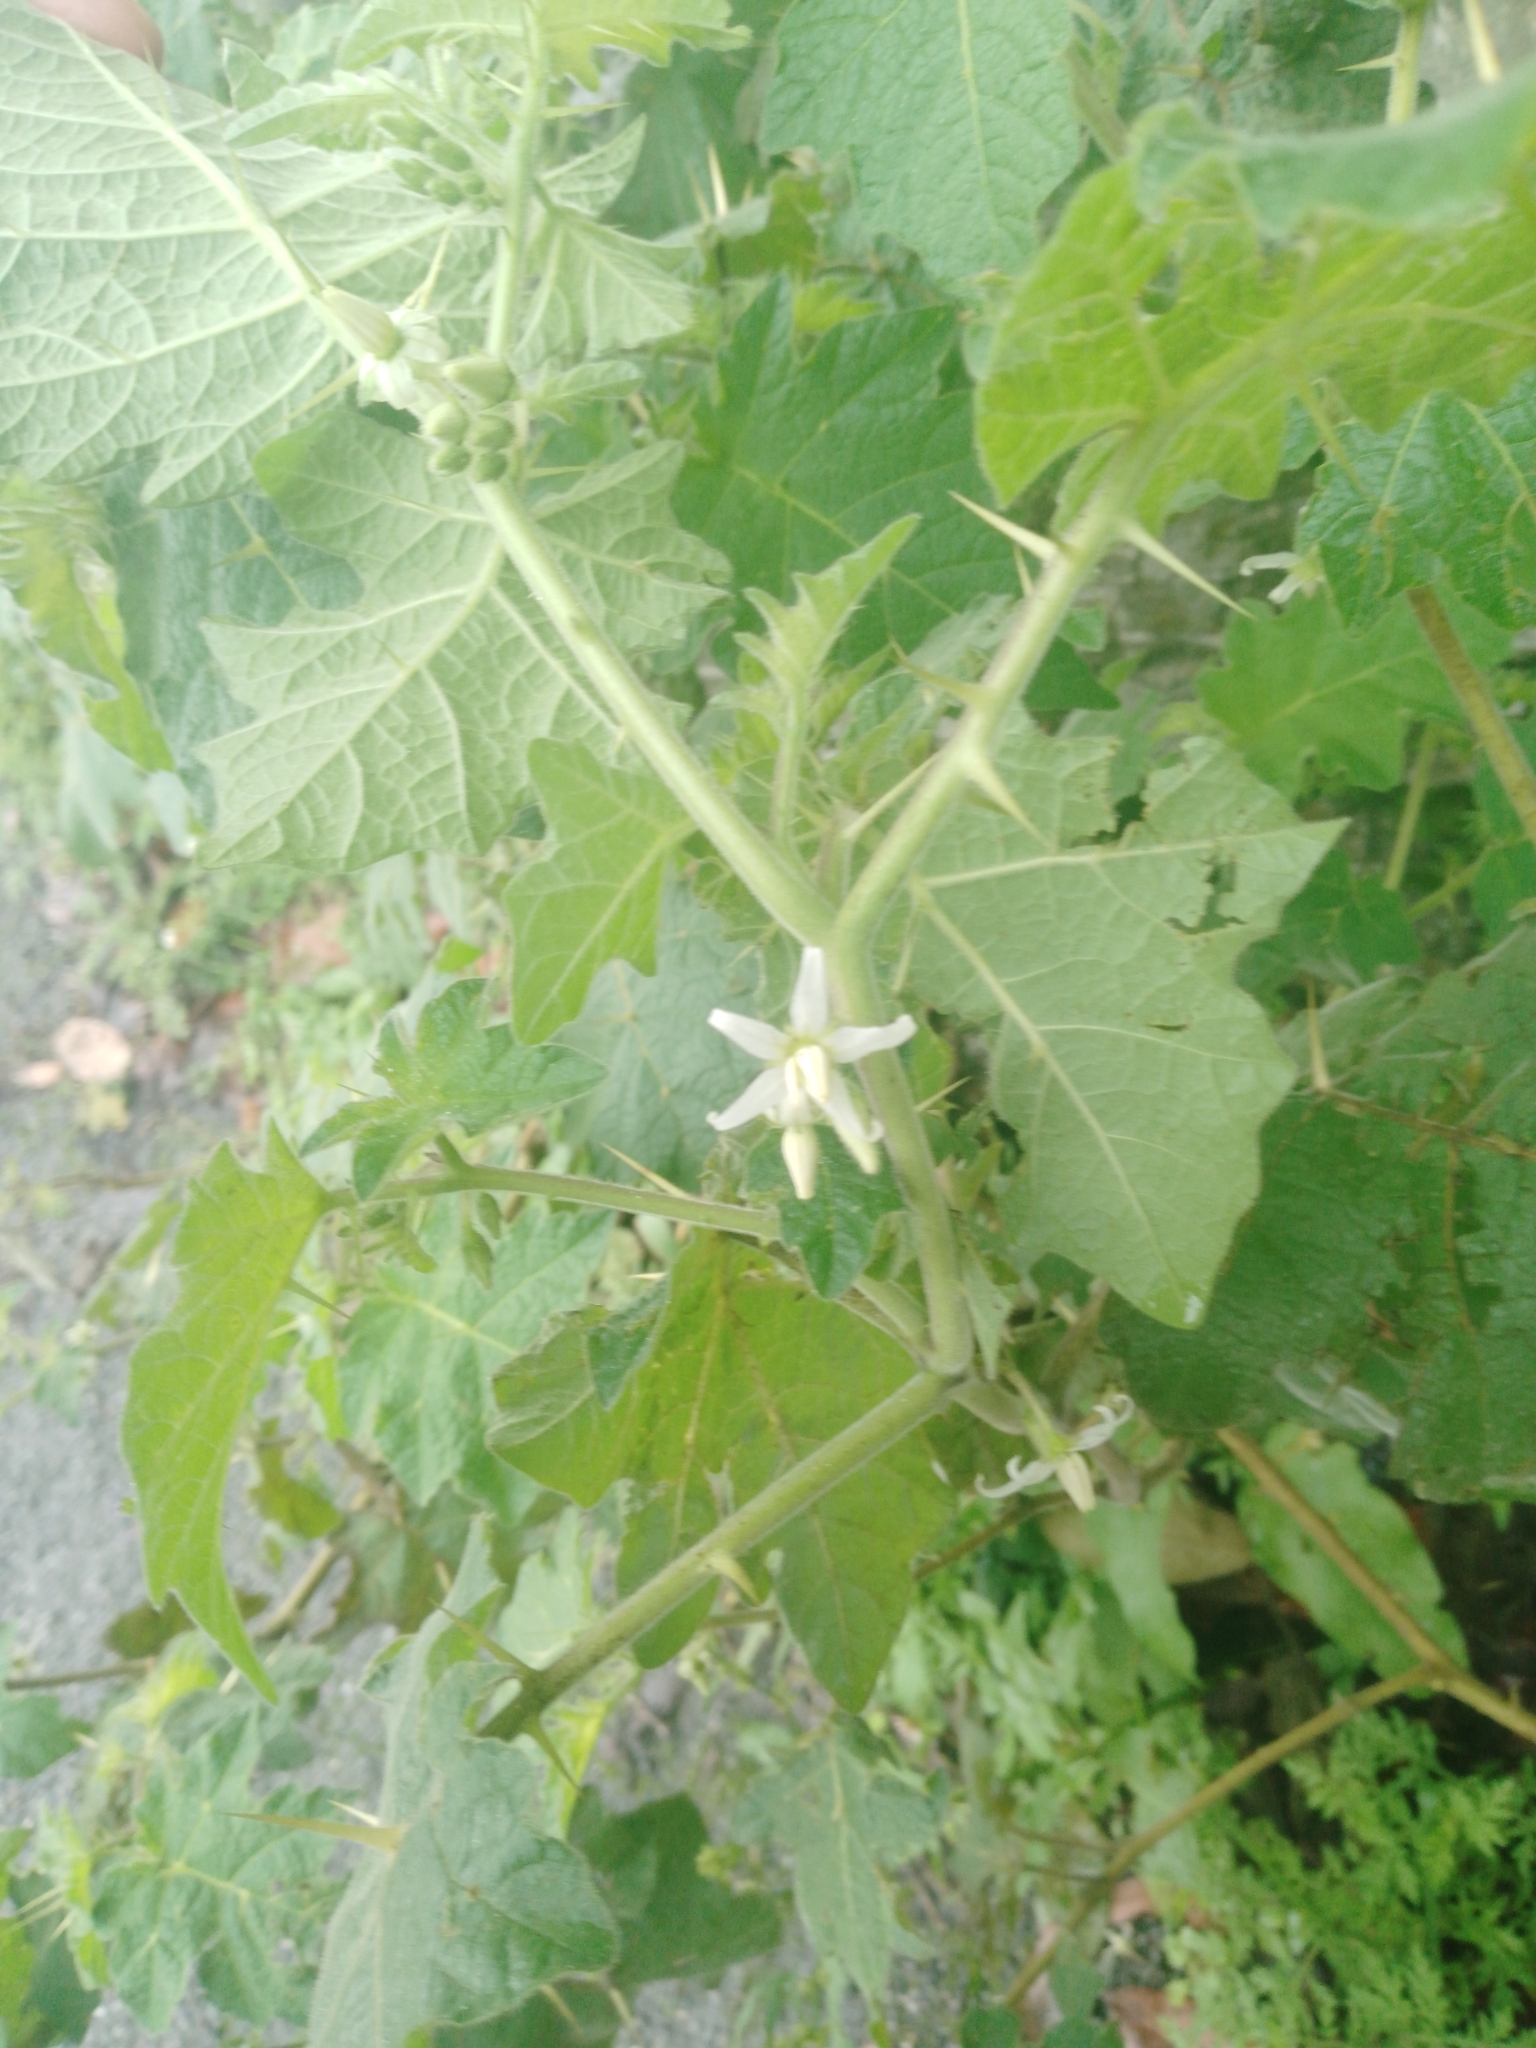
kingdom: Plantae
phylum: Tracheophyta
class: Magnoliopsida
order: Solanales
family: Solanaceae
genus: Solanum
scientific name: Solanum viarum
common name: Tropical soda apple
